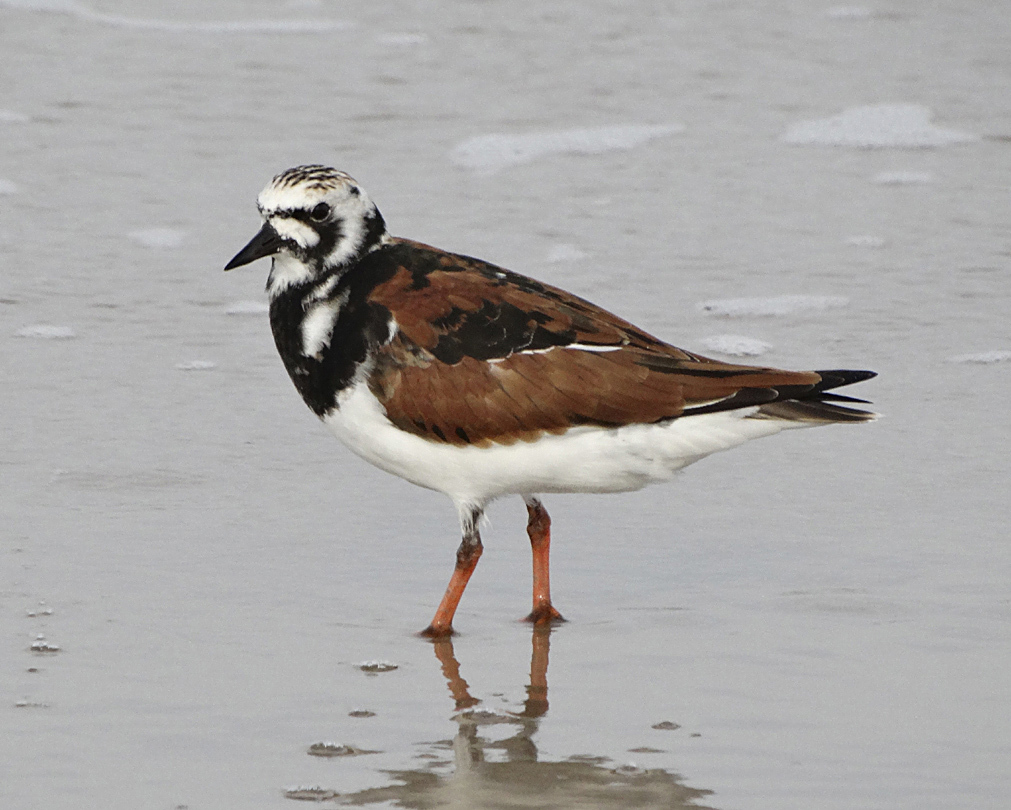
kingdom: Animalia
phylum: Chordata
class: Aves
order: Charadriiformes
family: Scolopacidae
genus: Arenaria
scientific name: Arenaria interpres
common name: Ruddy turnstone
